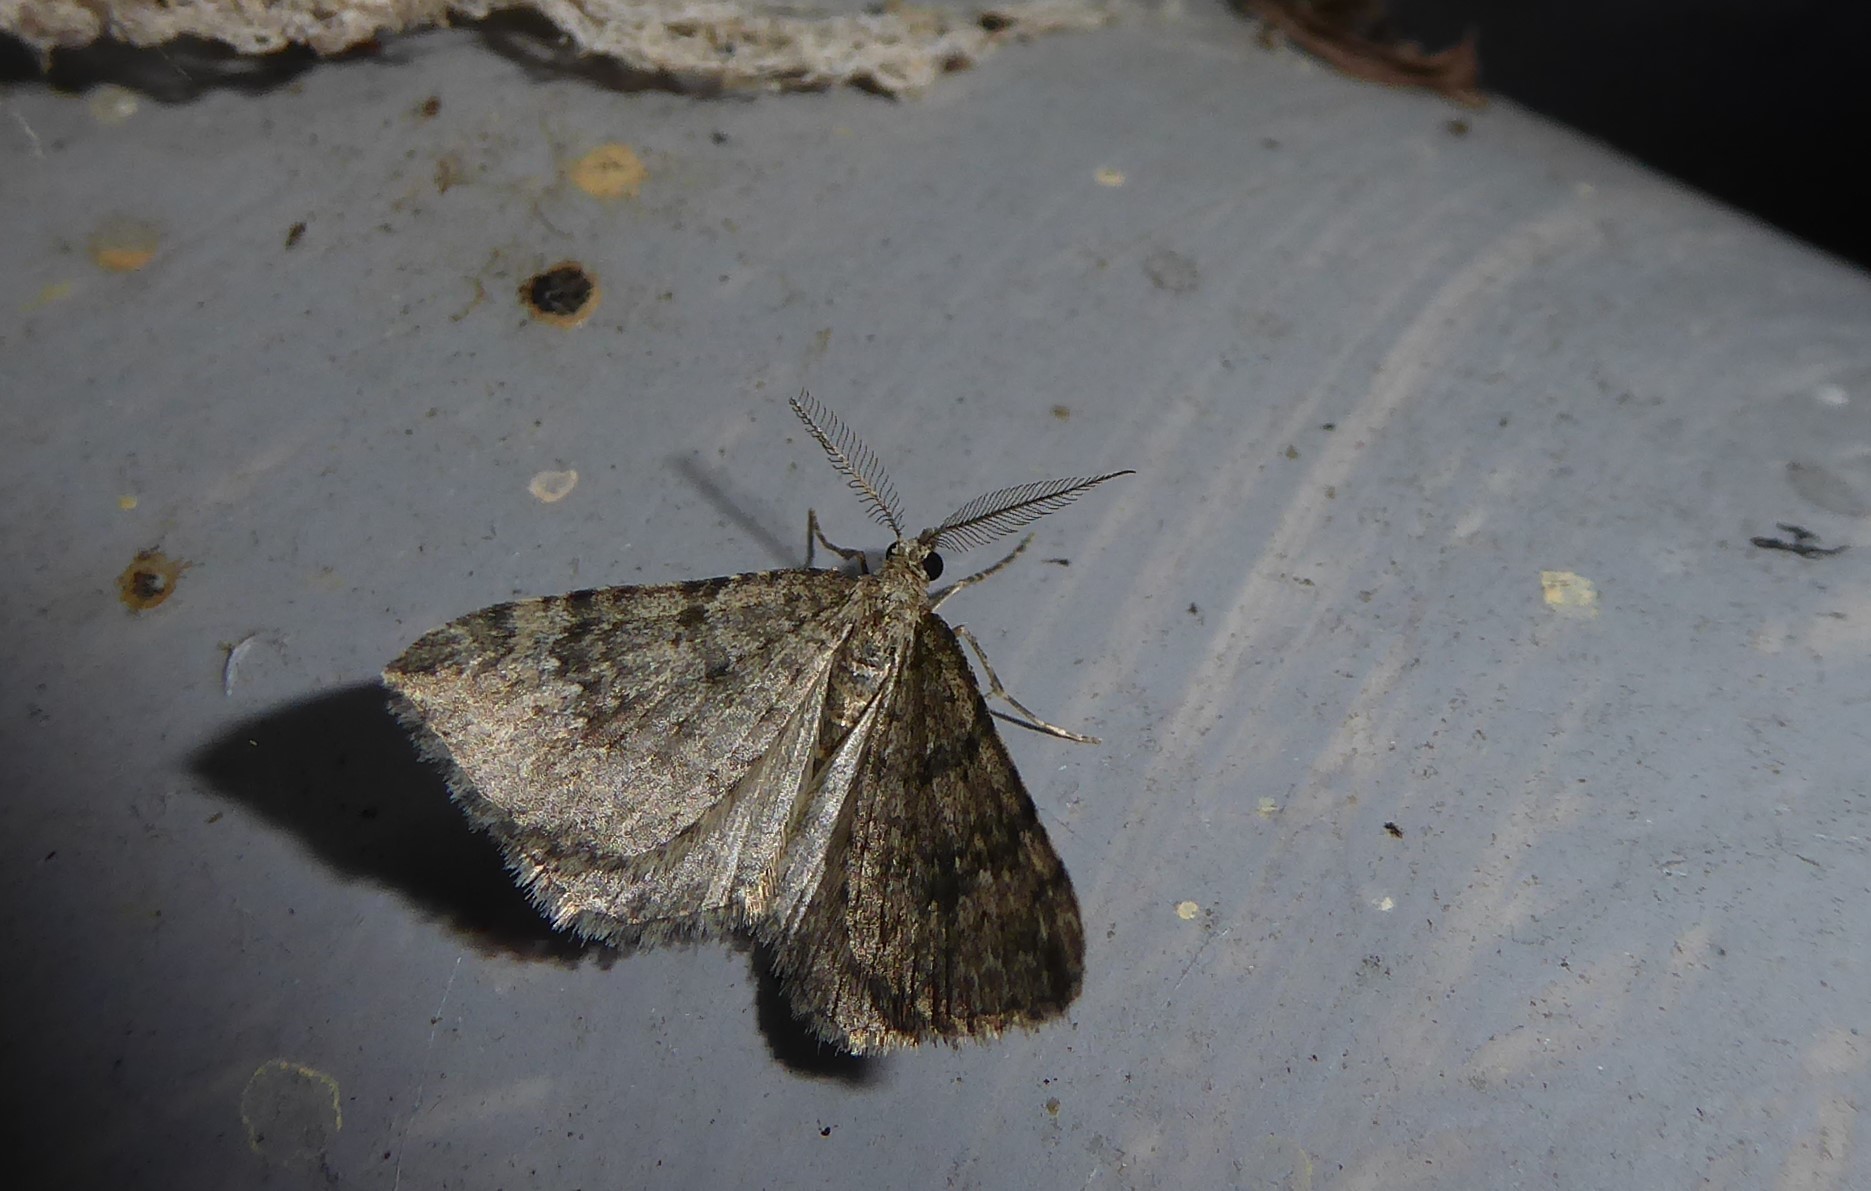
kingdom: Animalia
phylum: Arthropoda
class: Insecta
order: Lepidoptera
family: Geometridae
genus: Helastia
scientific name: Helastia corcularia
